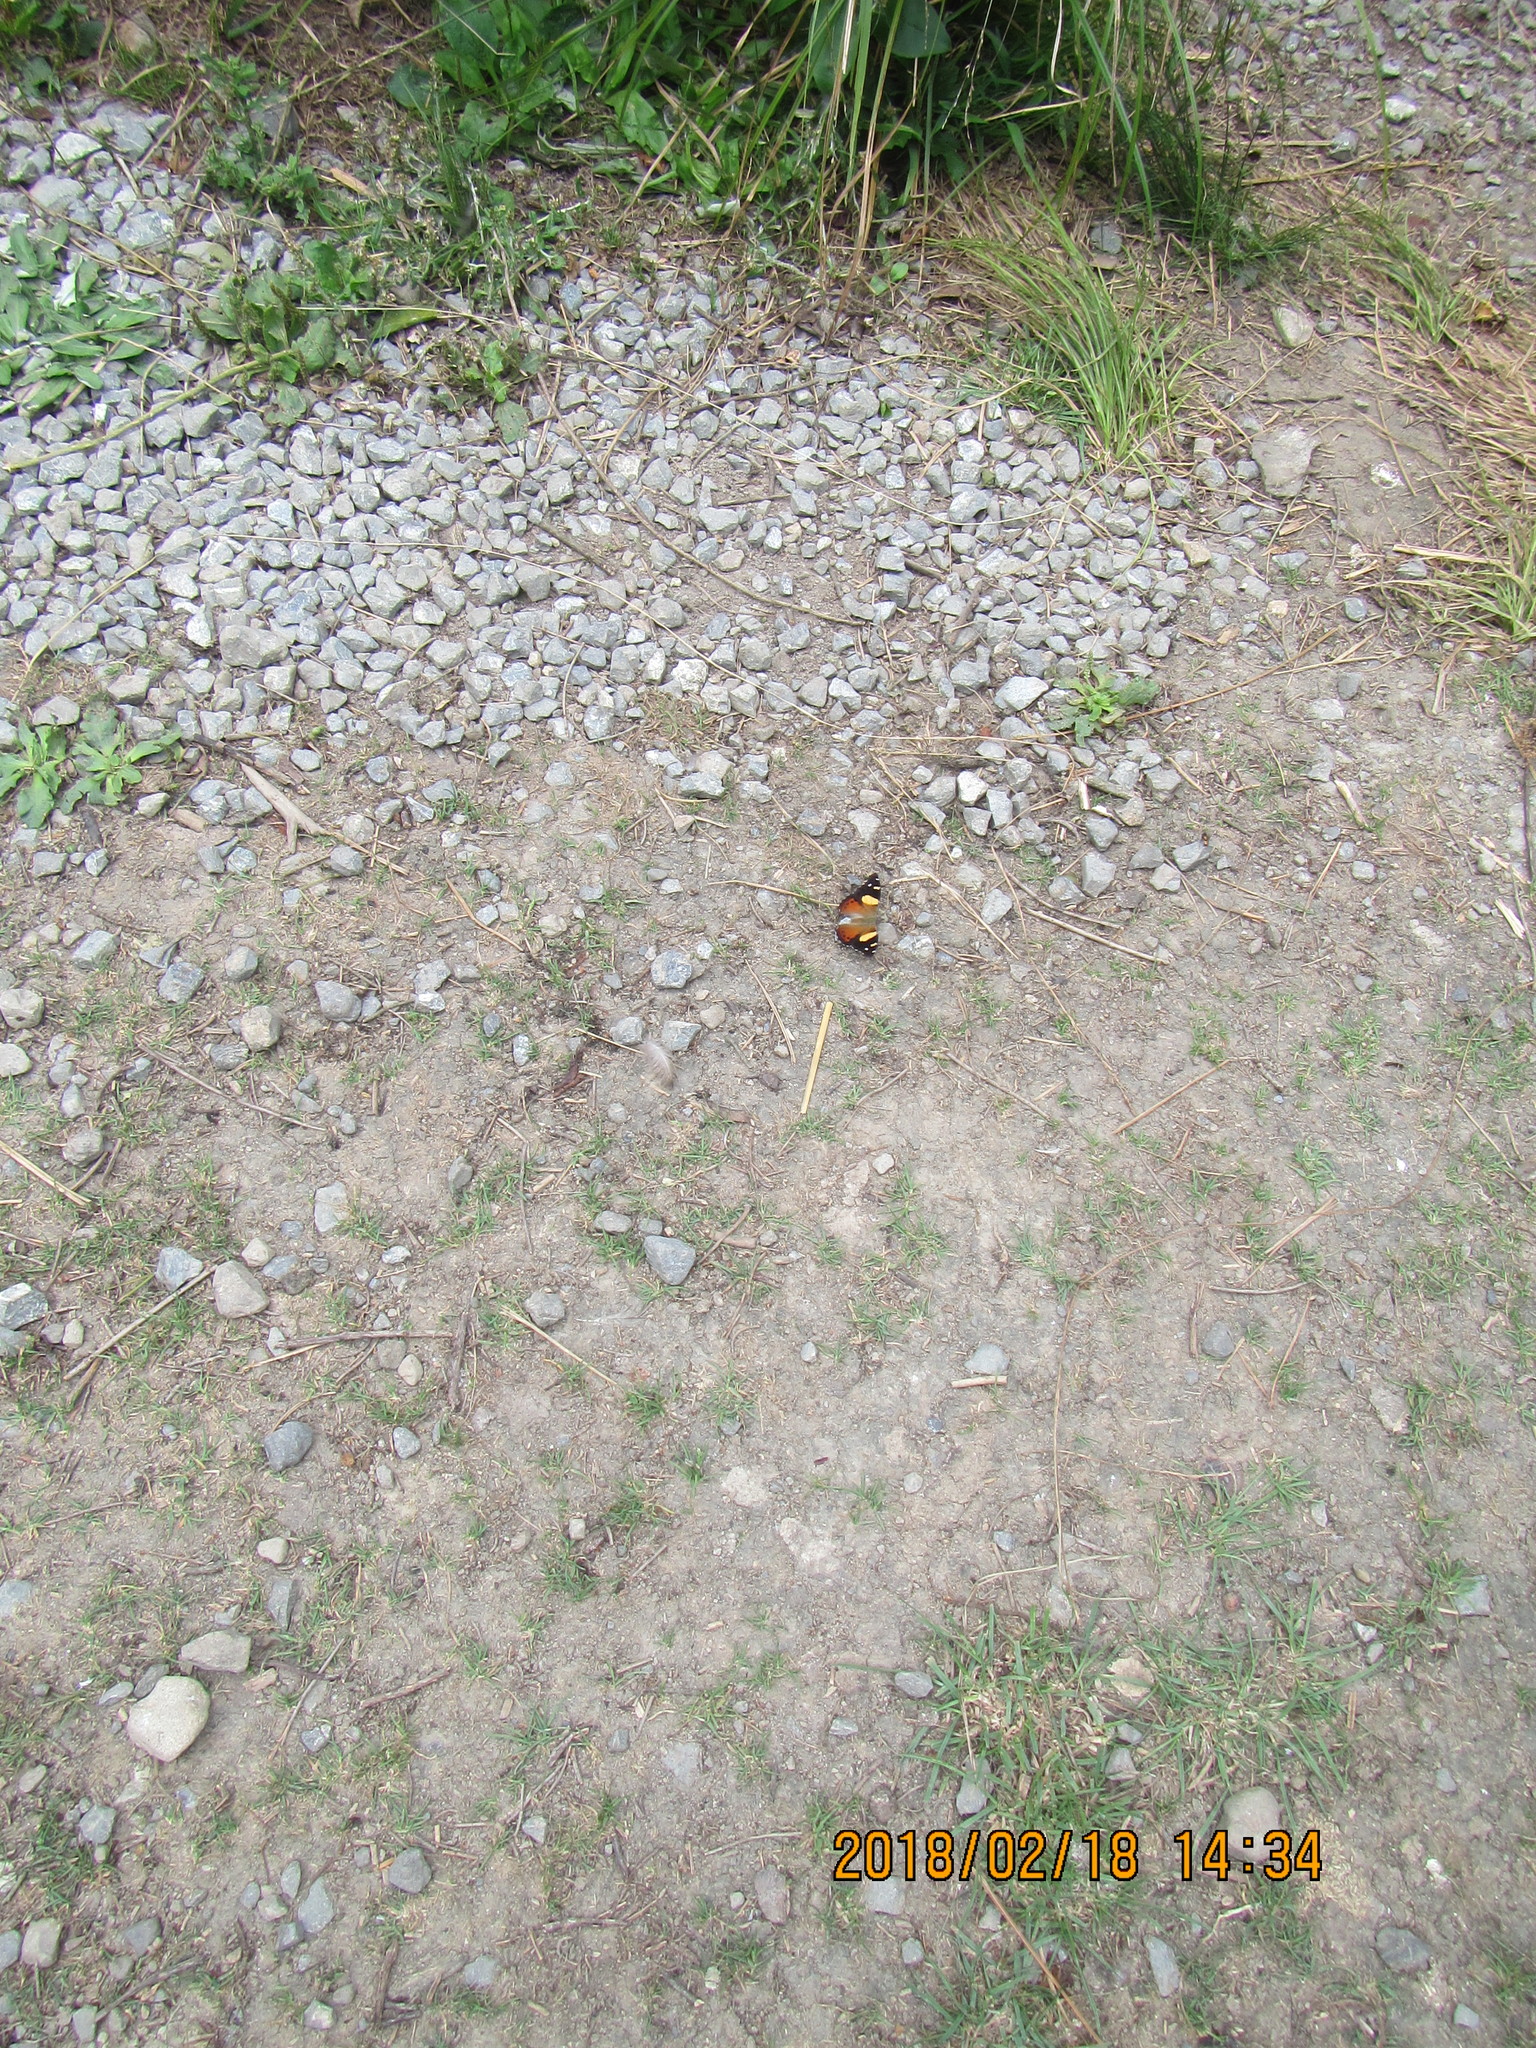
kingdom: Animalia
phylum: Arthropoda
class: Insecta
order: Lepidoptera
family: Nymphalidae
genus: Vanessa
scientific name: Vanessa itea
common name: Yellow admiral
